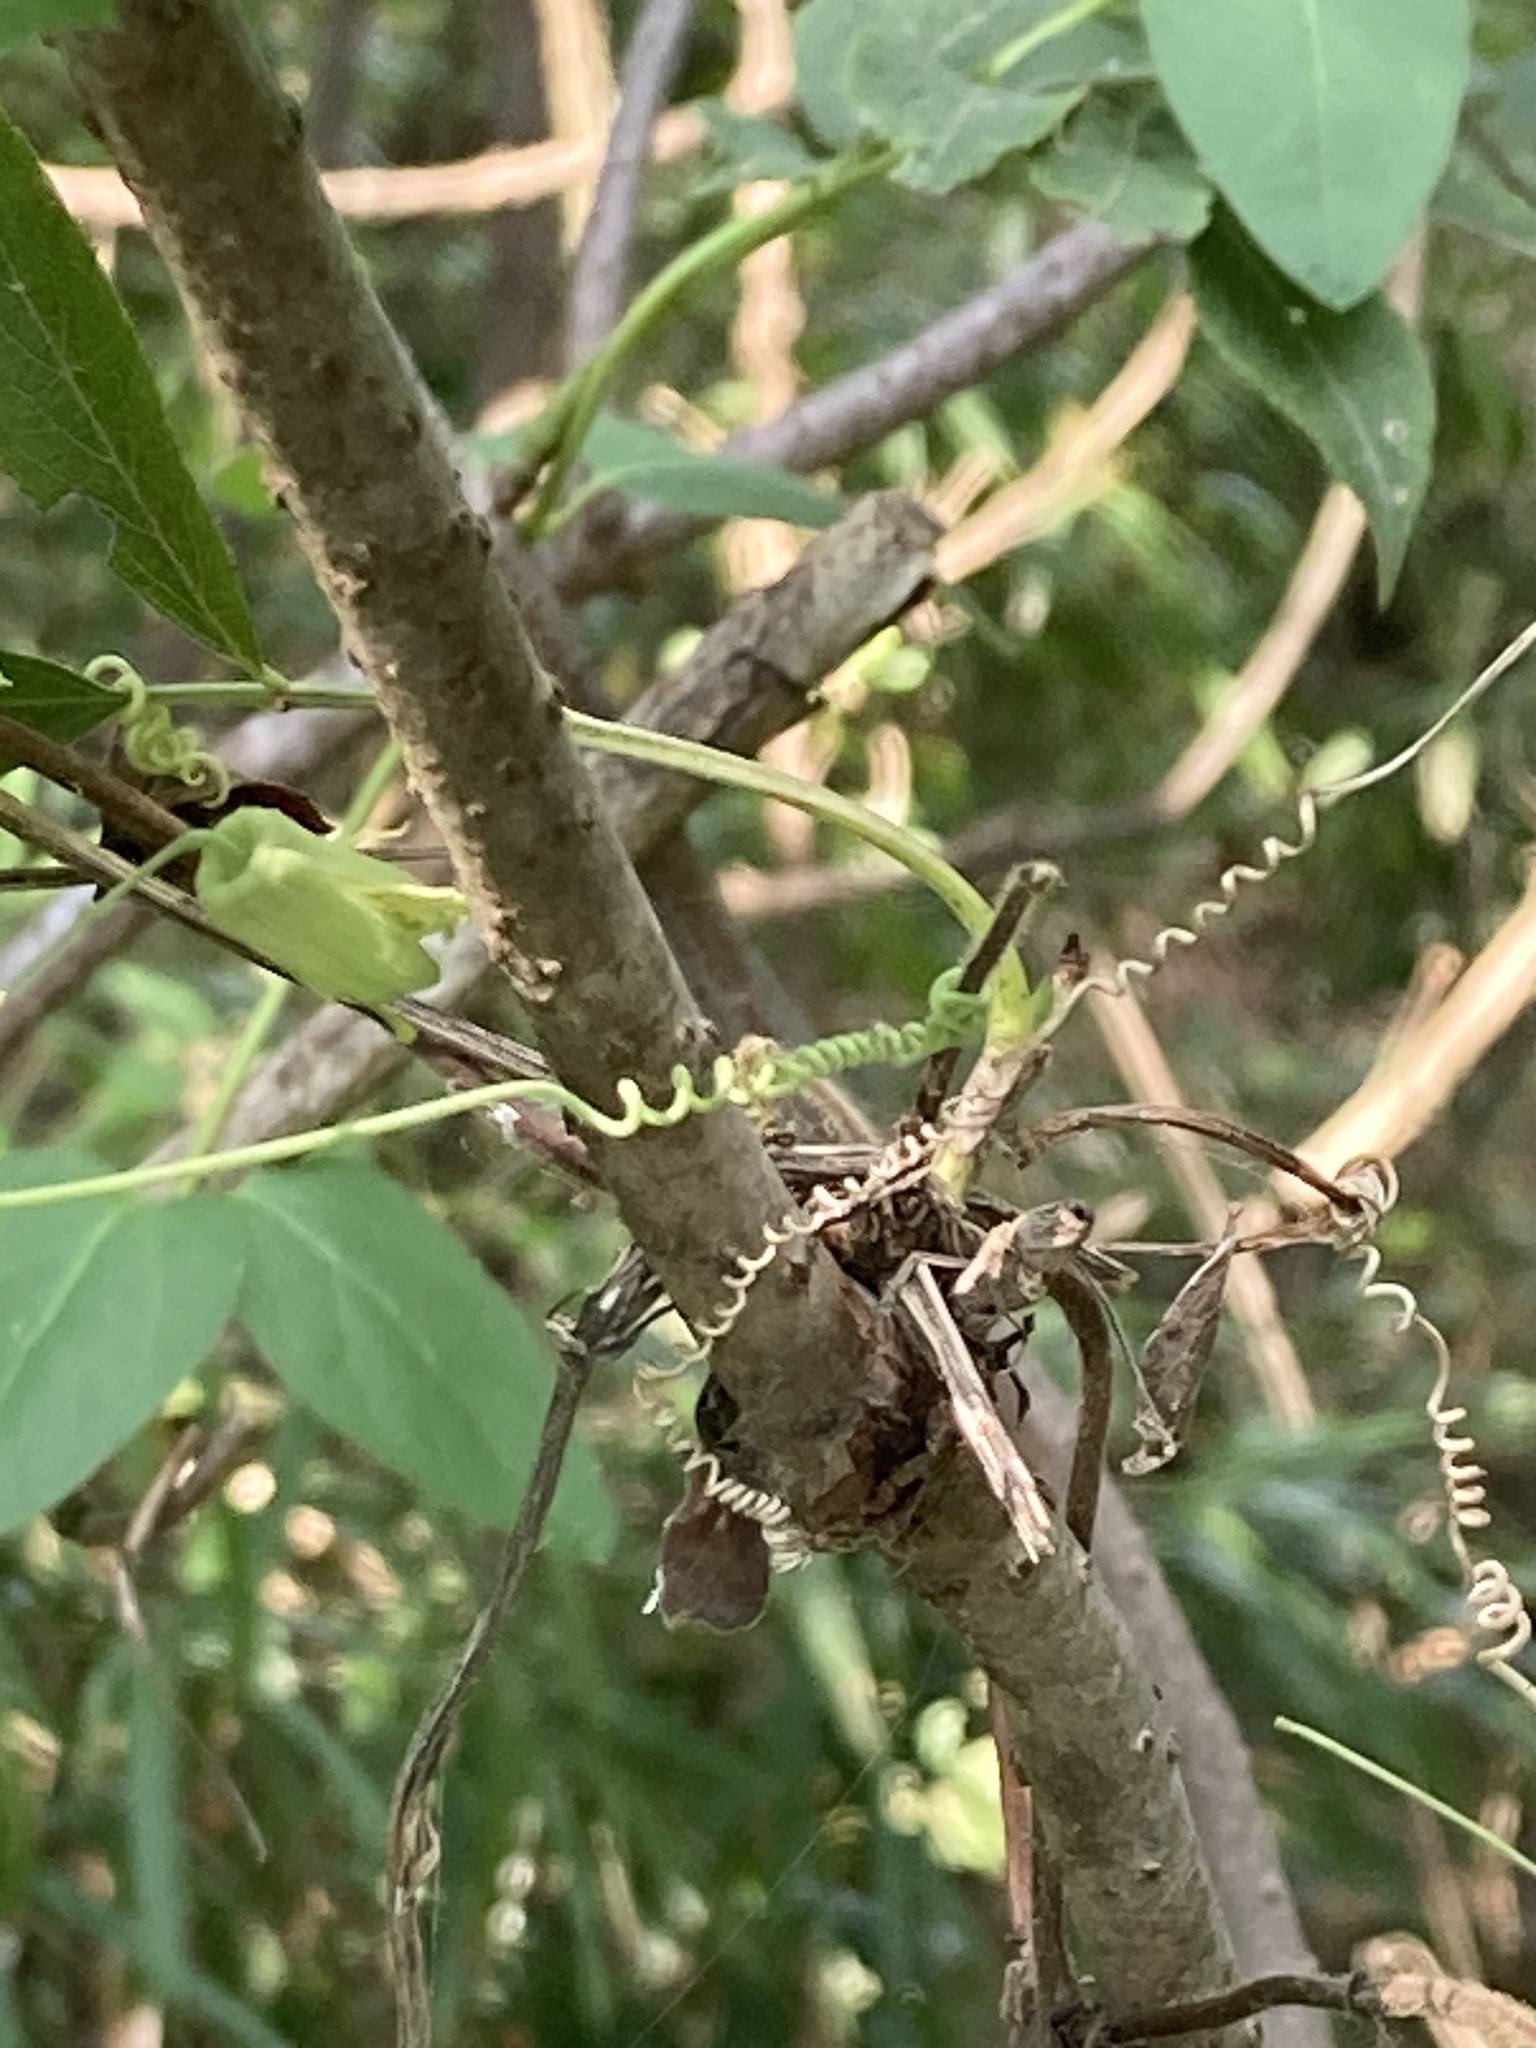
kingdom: Plantae
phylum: Tracheophyta
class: Magnoliopsida
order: Malpighiales
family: Passifloraceae
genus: Passiflora
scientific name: Passiflora lutea
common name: Yellow passionflower
